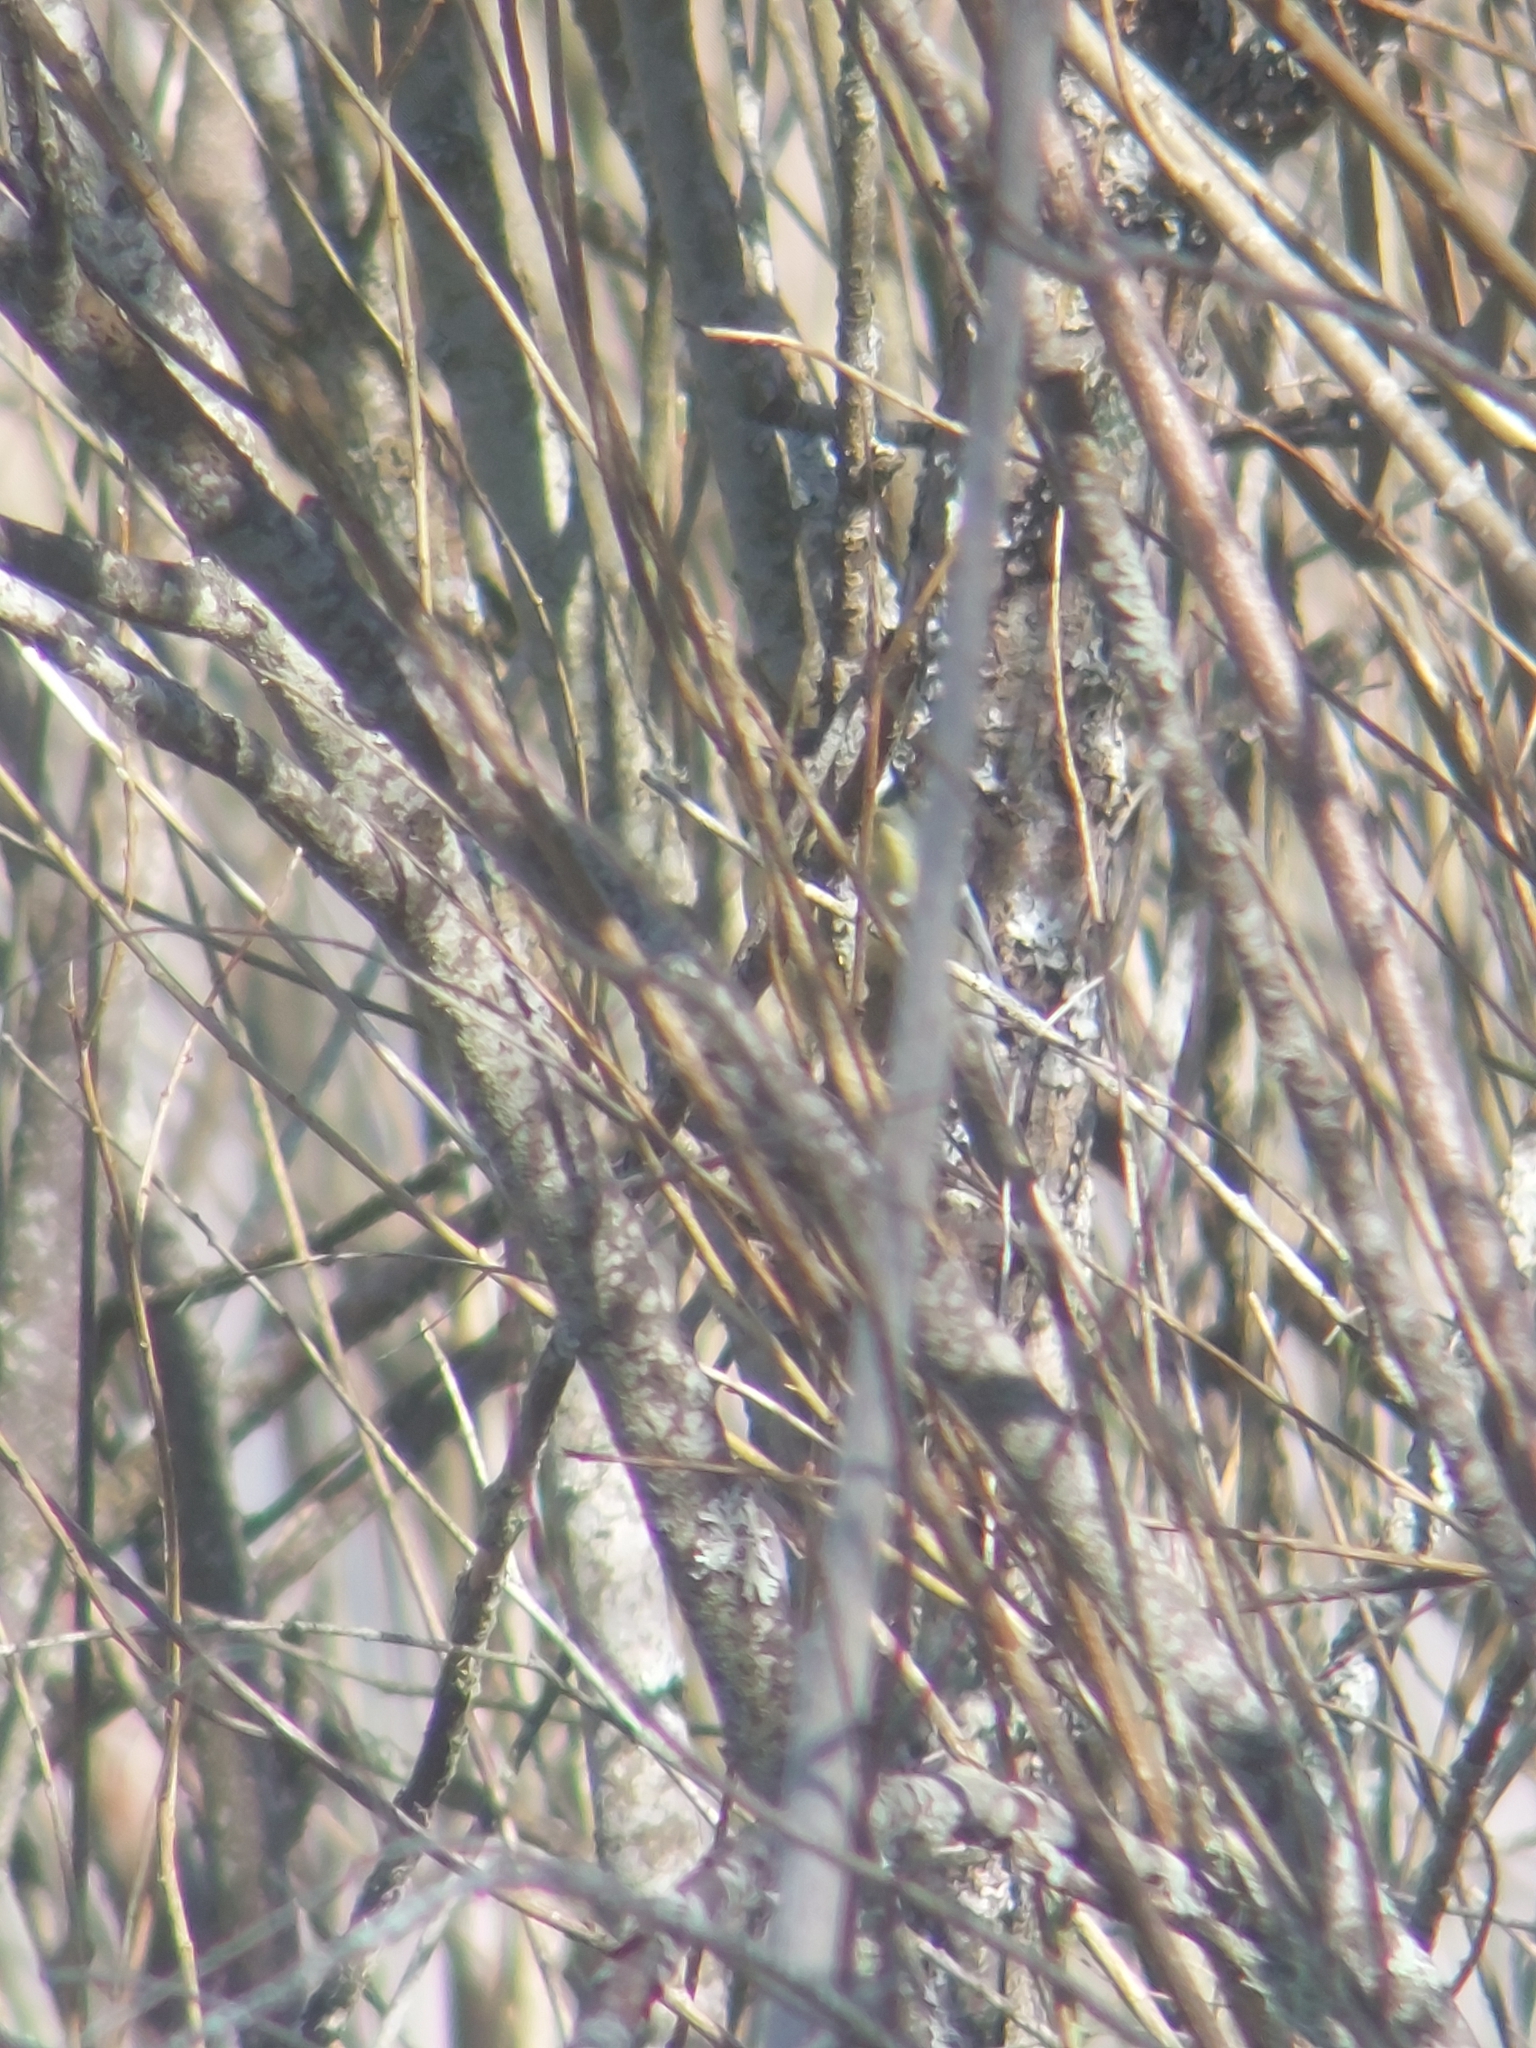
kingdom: Animalia
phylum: Chordata
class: Aves
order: Passeriformes
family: Paridae
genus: Parus
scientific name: Parus major
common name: Great tit
